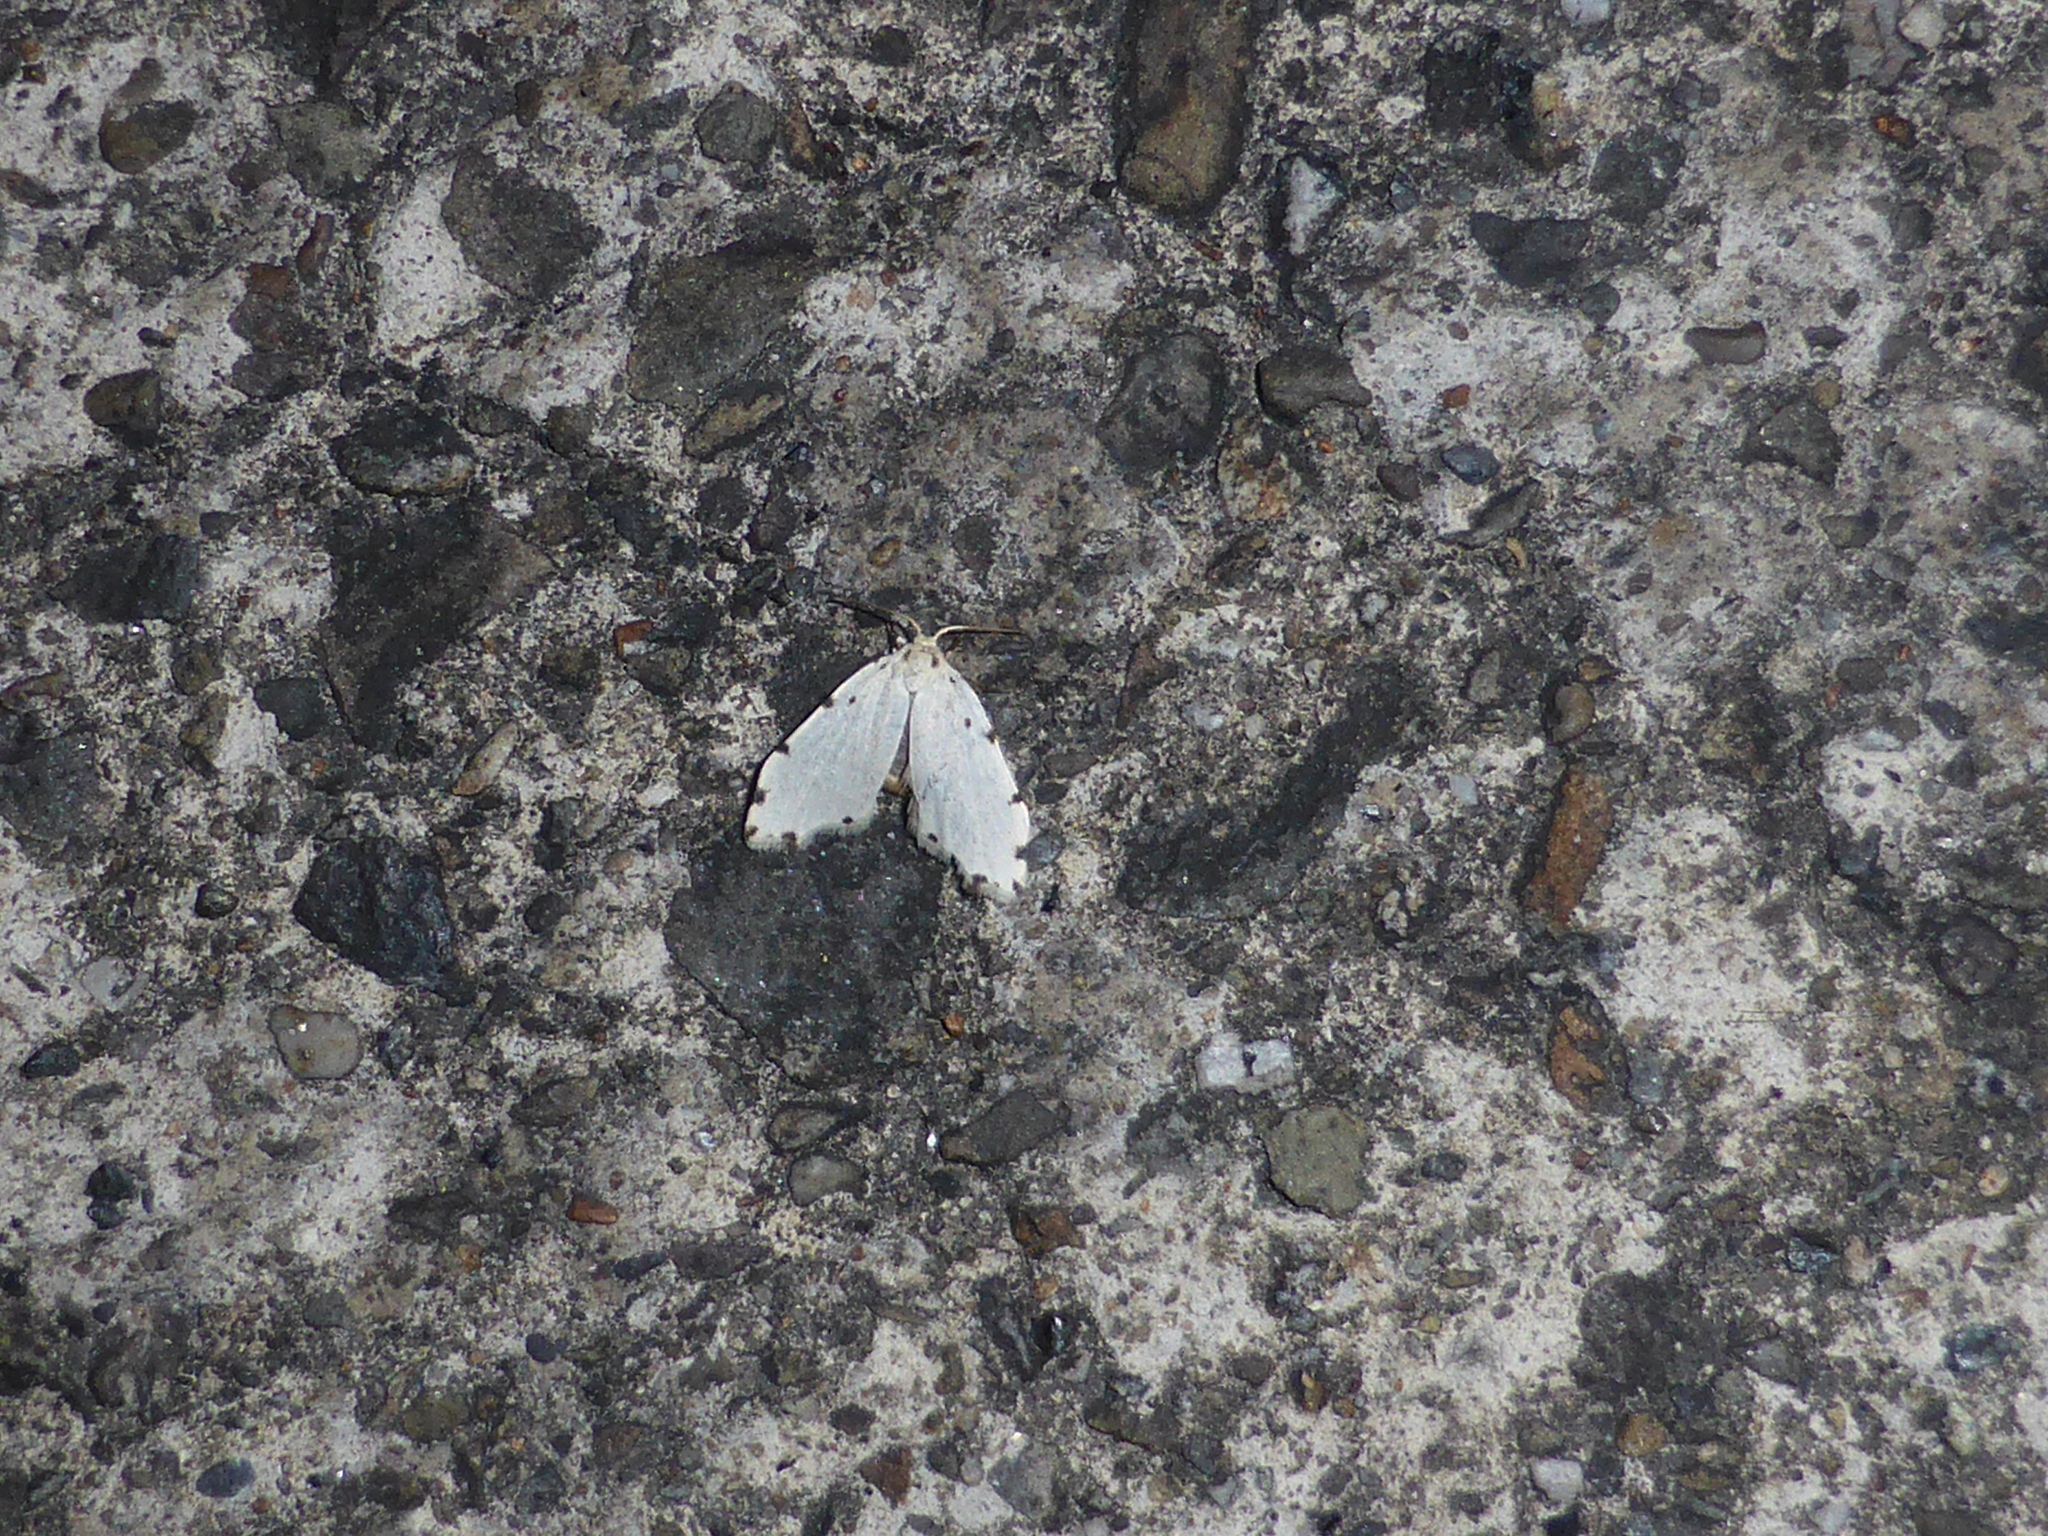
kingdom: Animalia
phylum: Arthropoda
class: Insecta
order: Lepidoptera
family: Noctuidae
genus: Metaemene
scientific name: Metaemene circumpunctata
